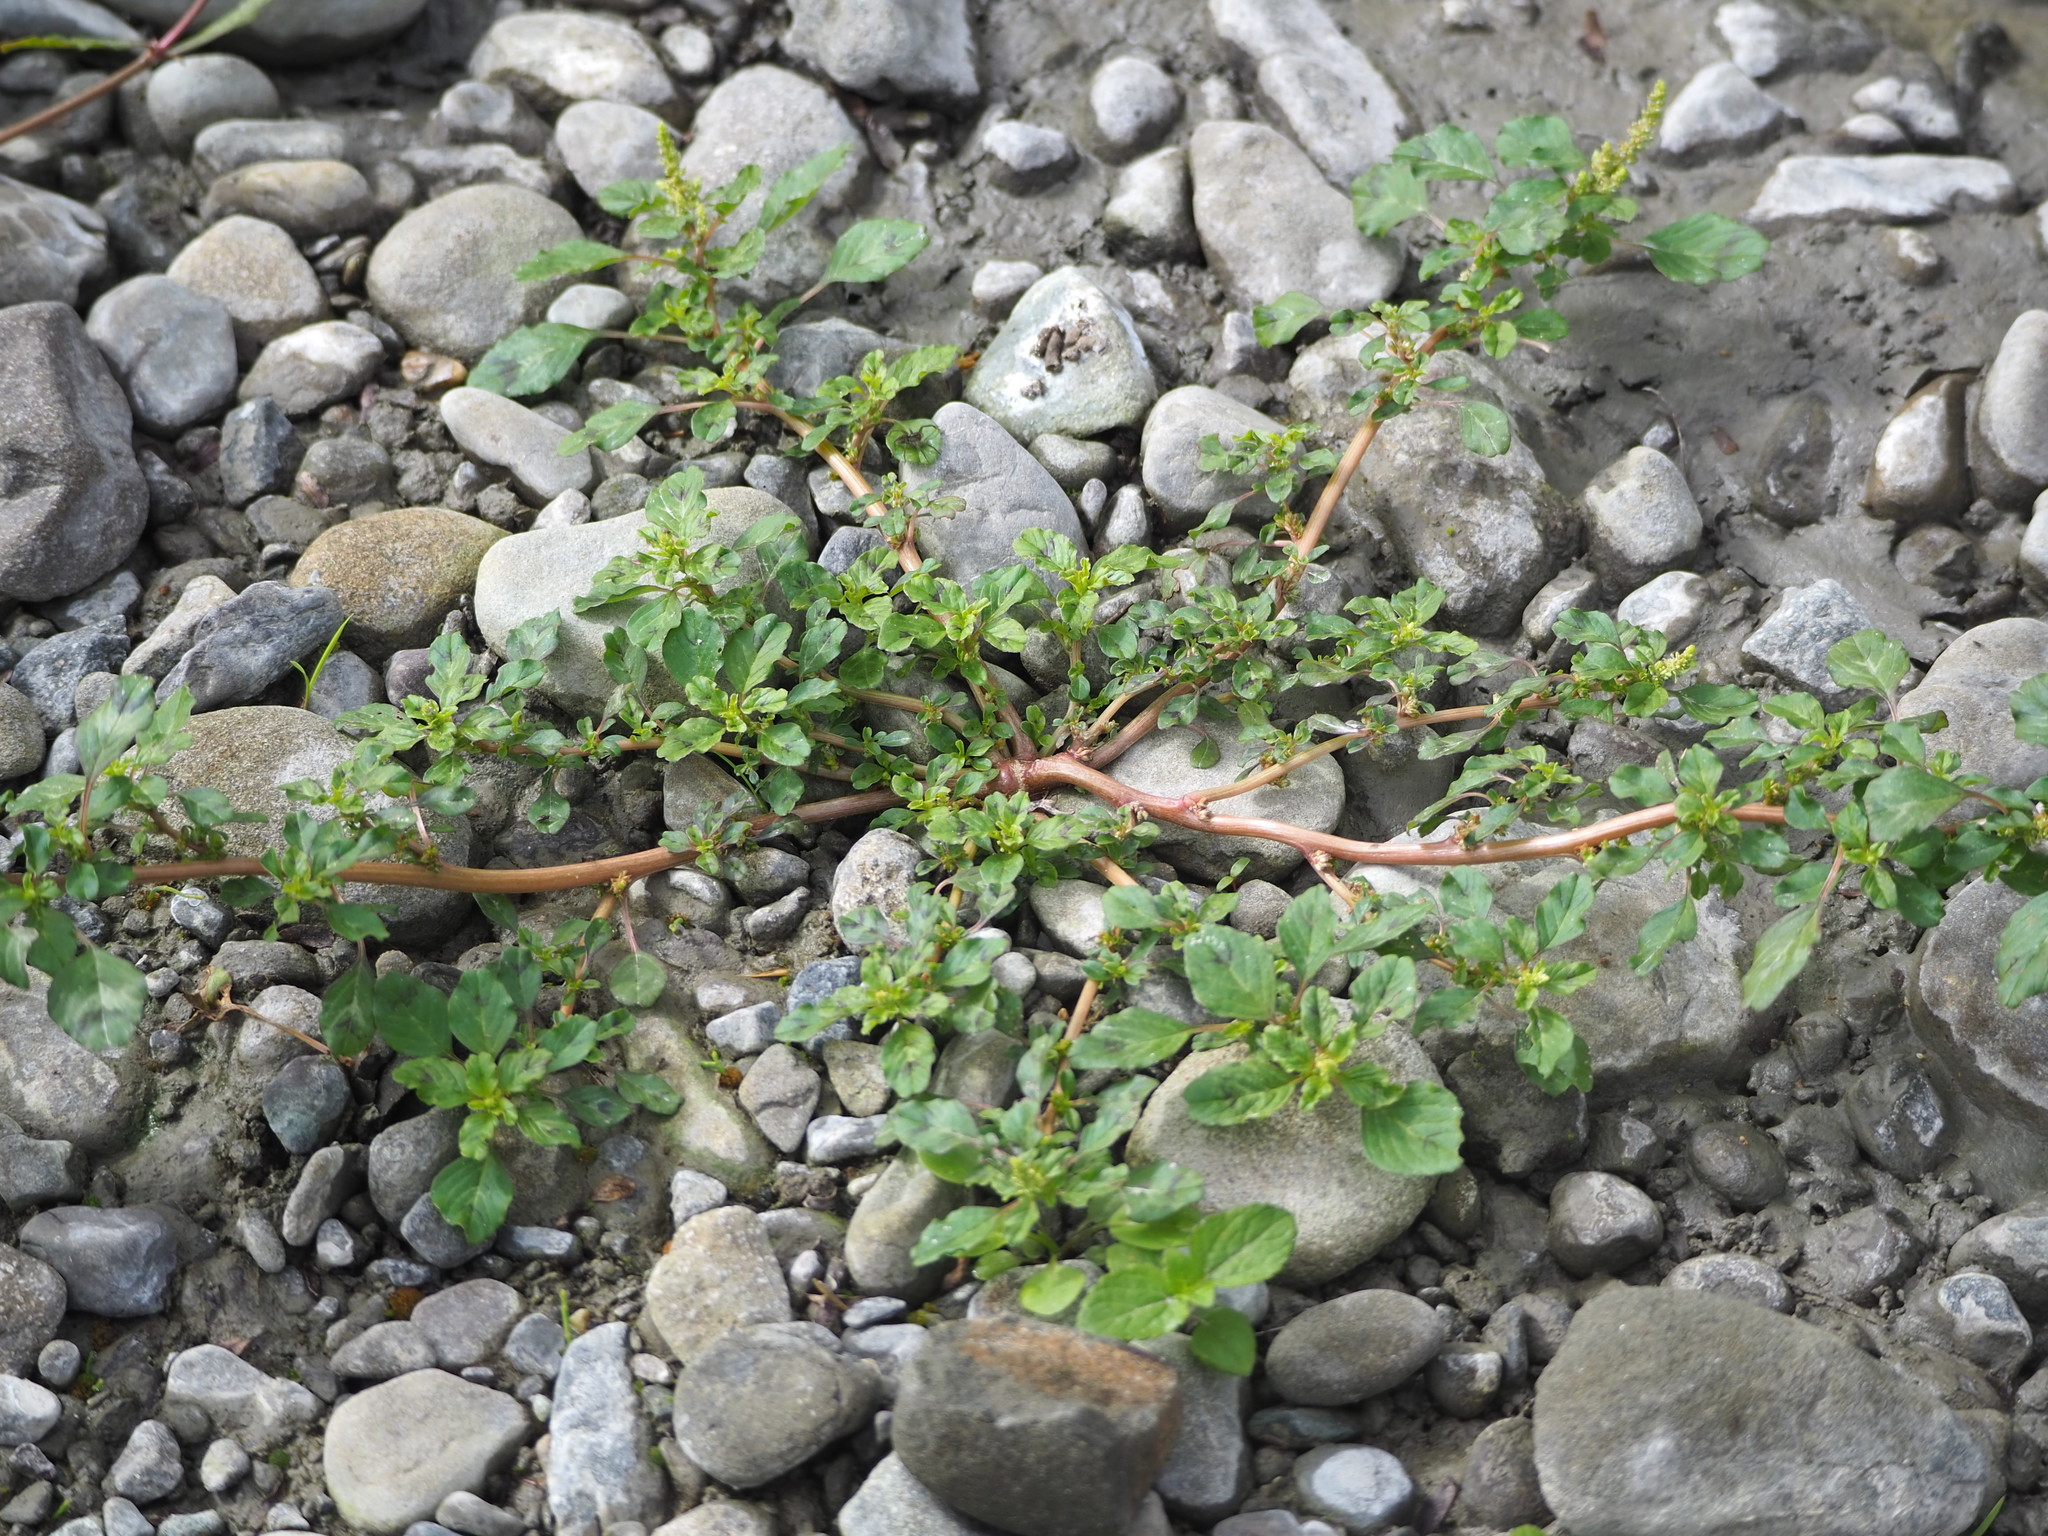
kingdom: Plantae
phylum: Tracheophyta
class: Magnoliopsida
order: Caryophyllales
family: Amaranthaceae
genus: Amaranthus
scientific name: Amaranthus blitum
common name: Purple amaranth
